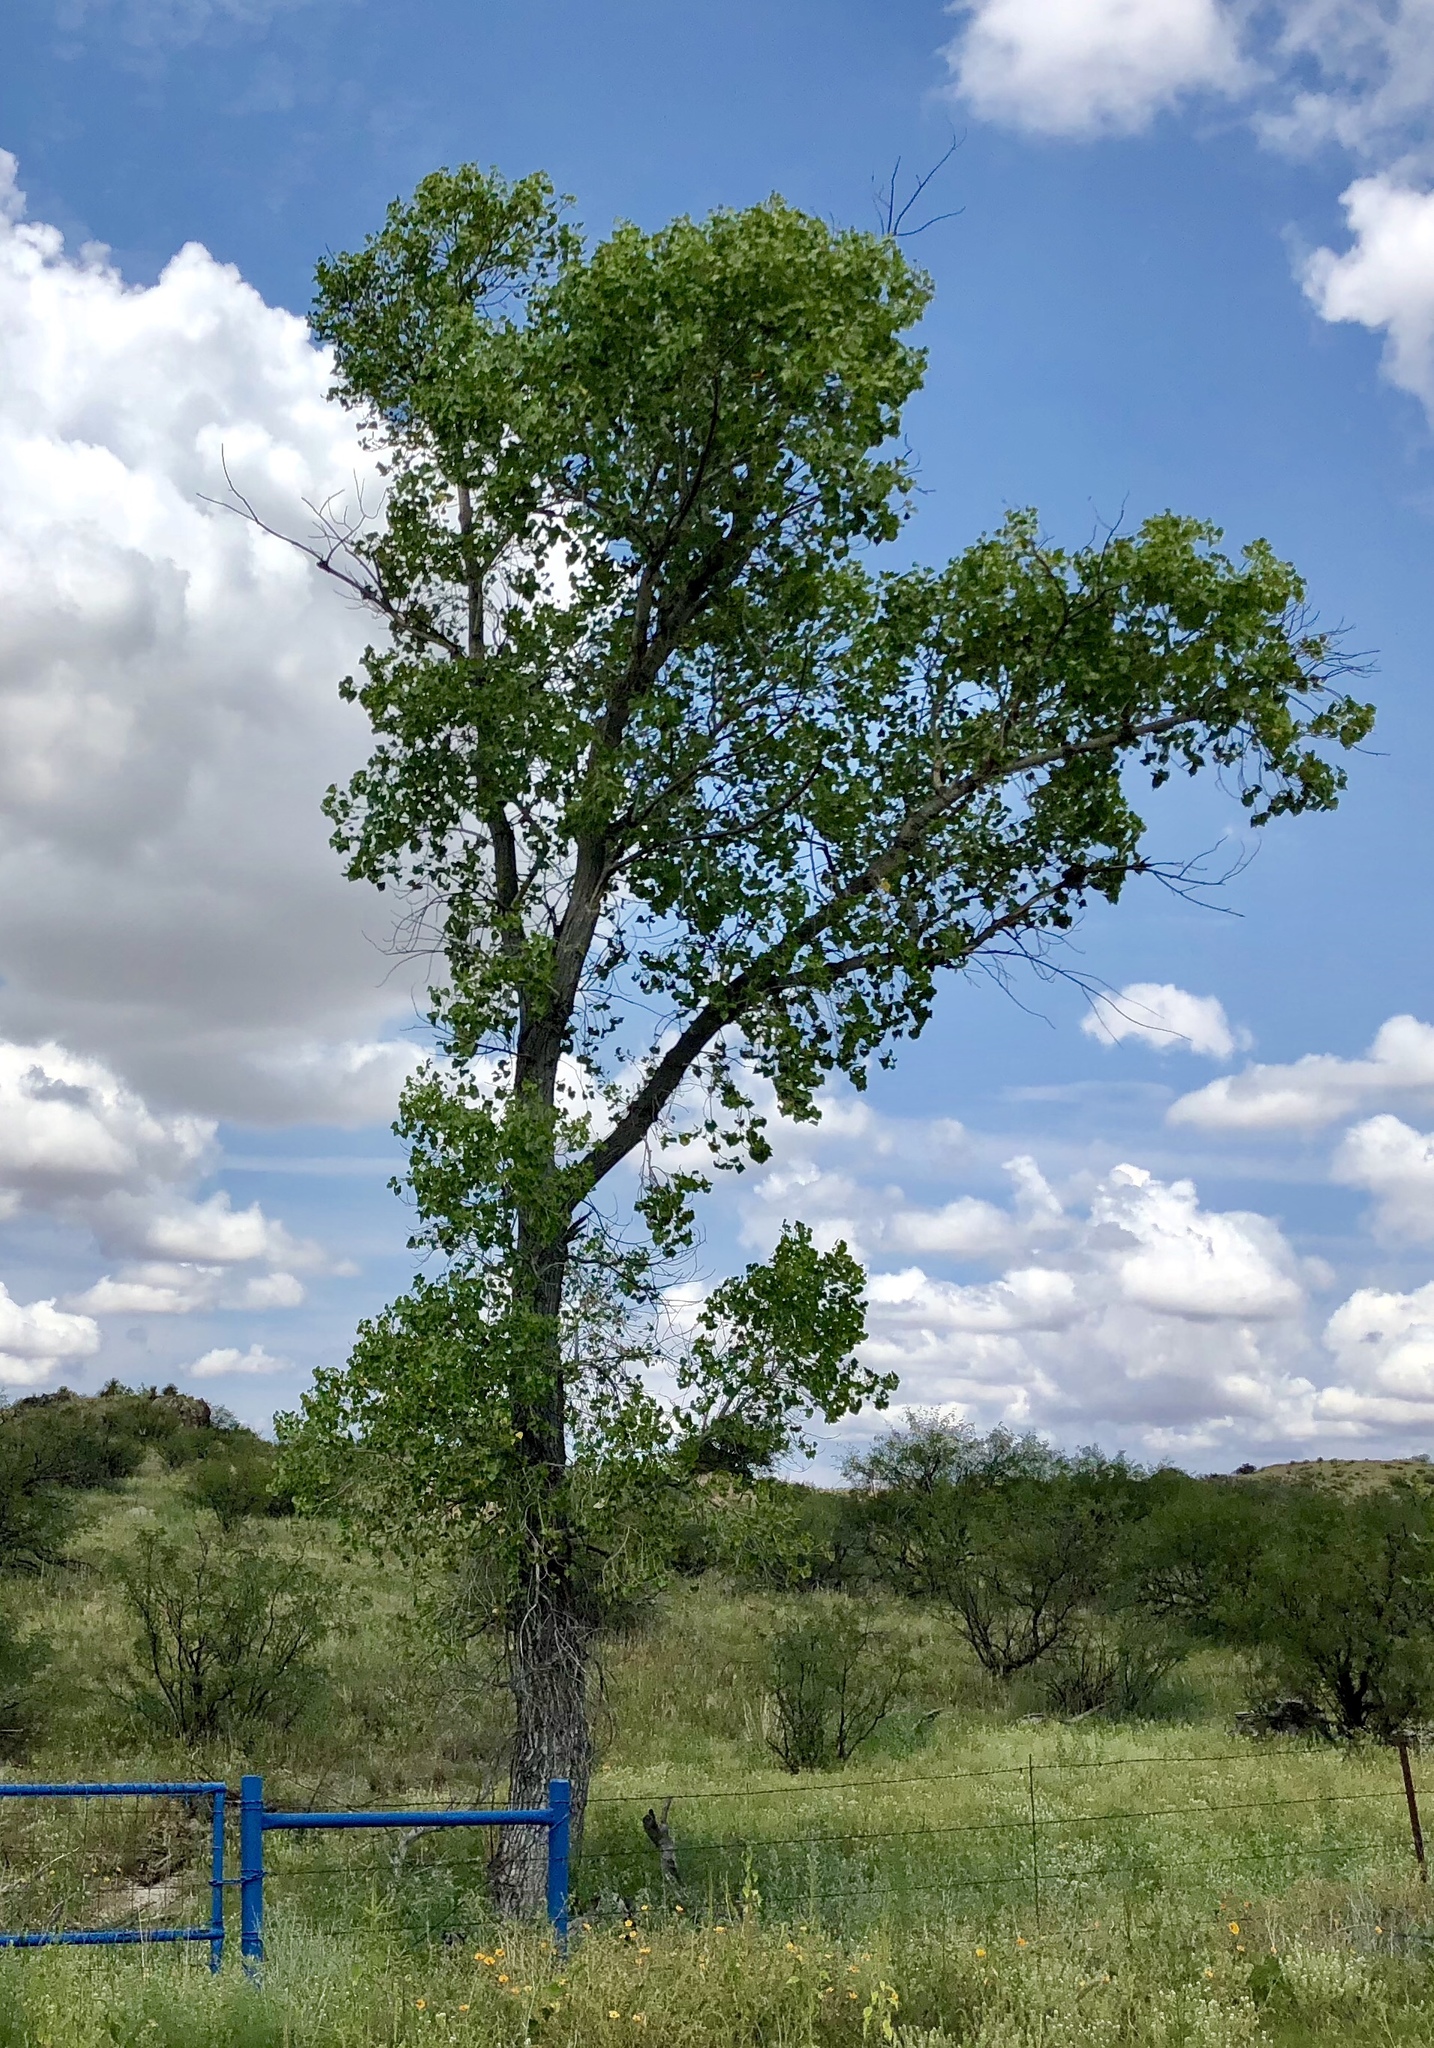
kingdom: Plantae
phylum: Tracheophyta
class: Magnoliopsida
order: Malpighiales
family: Salicaceae
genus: Populus
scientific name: Populus fremontii
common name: Fremont's cottonwood
